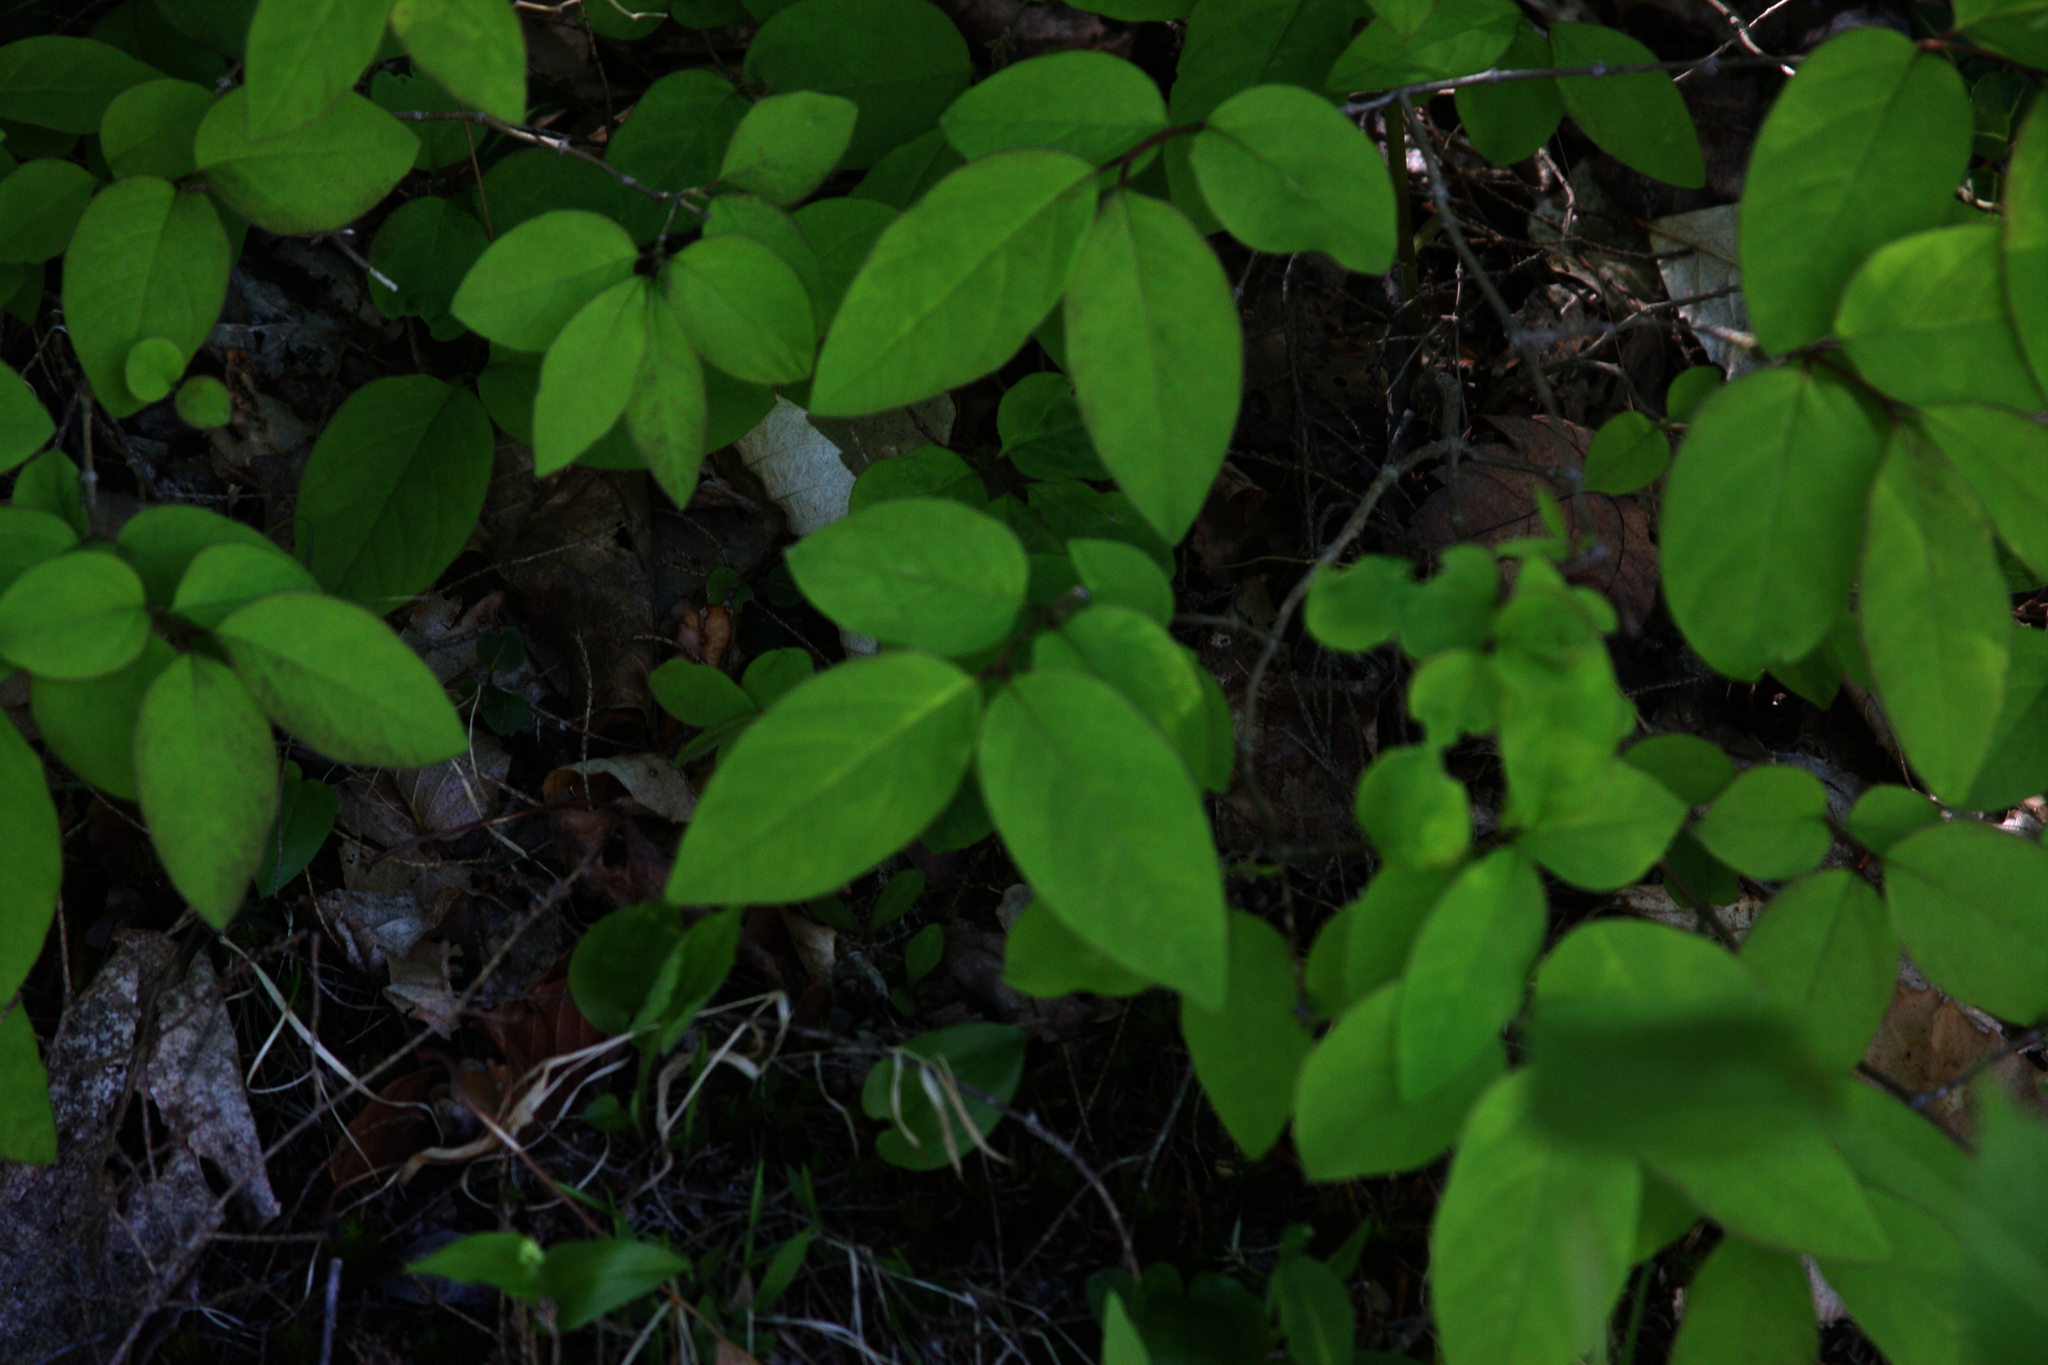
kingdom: Plantae
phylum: Tracheophyta
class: Magnoliopsida
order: Dipsacales
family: Caprifoliaceae
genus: Lonicera
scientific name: Lonicera canadensis
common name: American fly-honeysuckle
